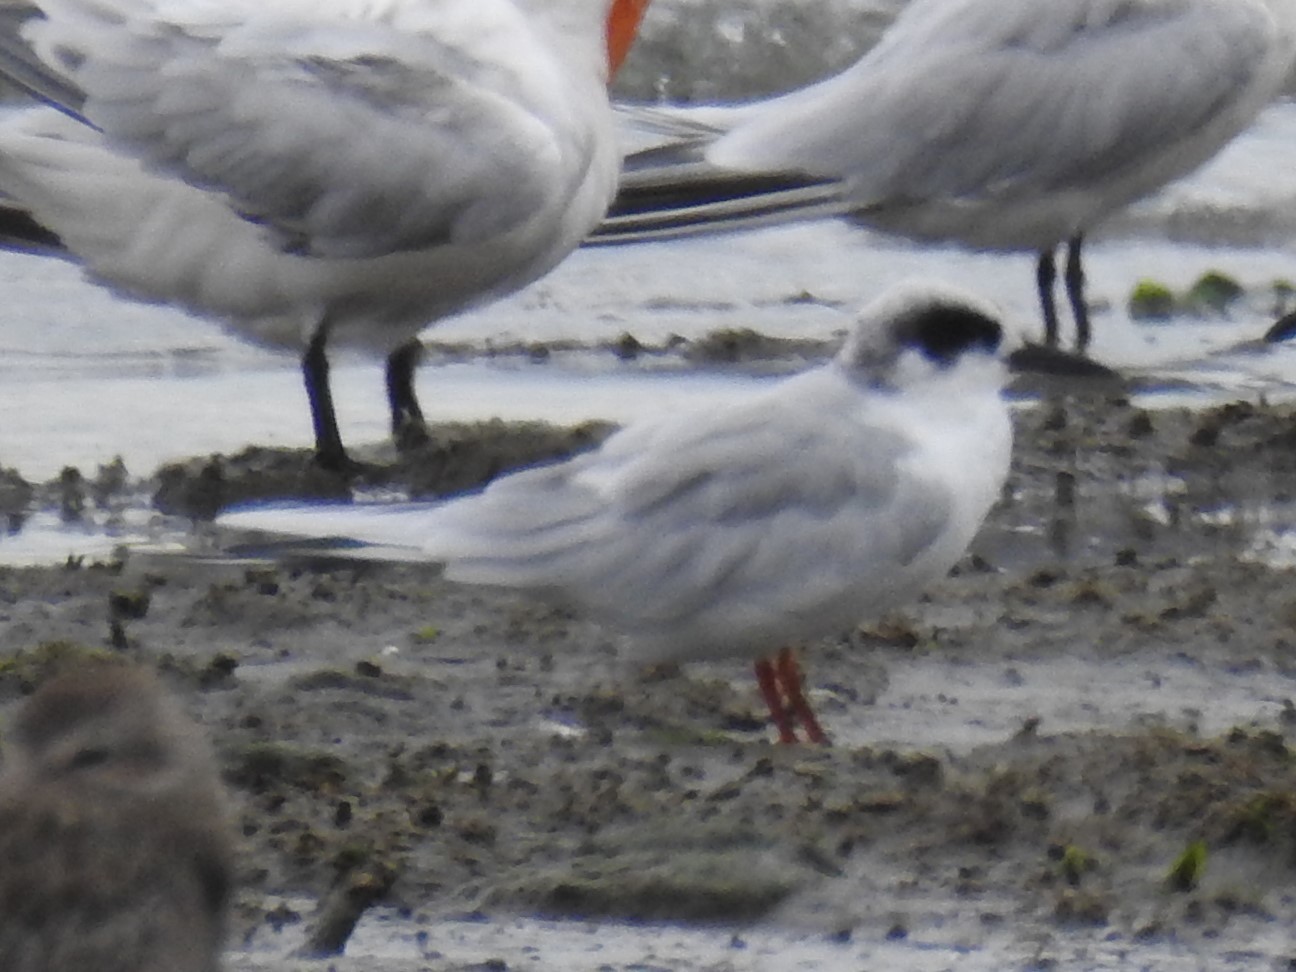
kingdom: Animalia
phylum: Chordata
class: Aves
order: Charadriiformes
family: Laridae
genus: Sterna
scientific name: Sterna forsteri
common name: Forster's tern
